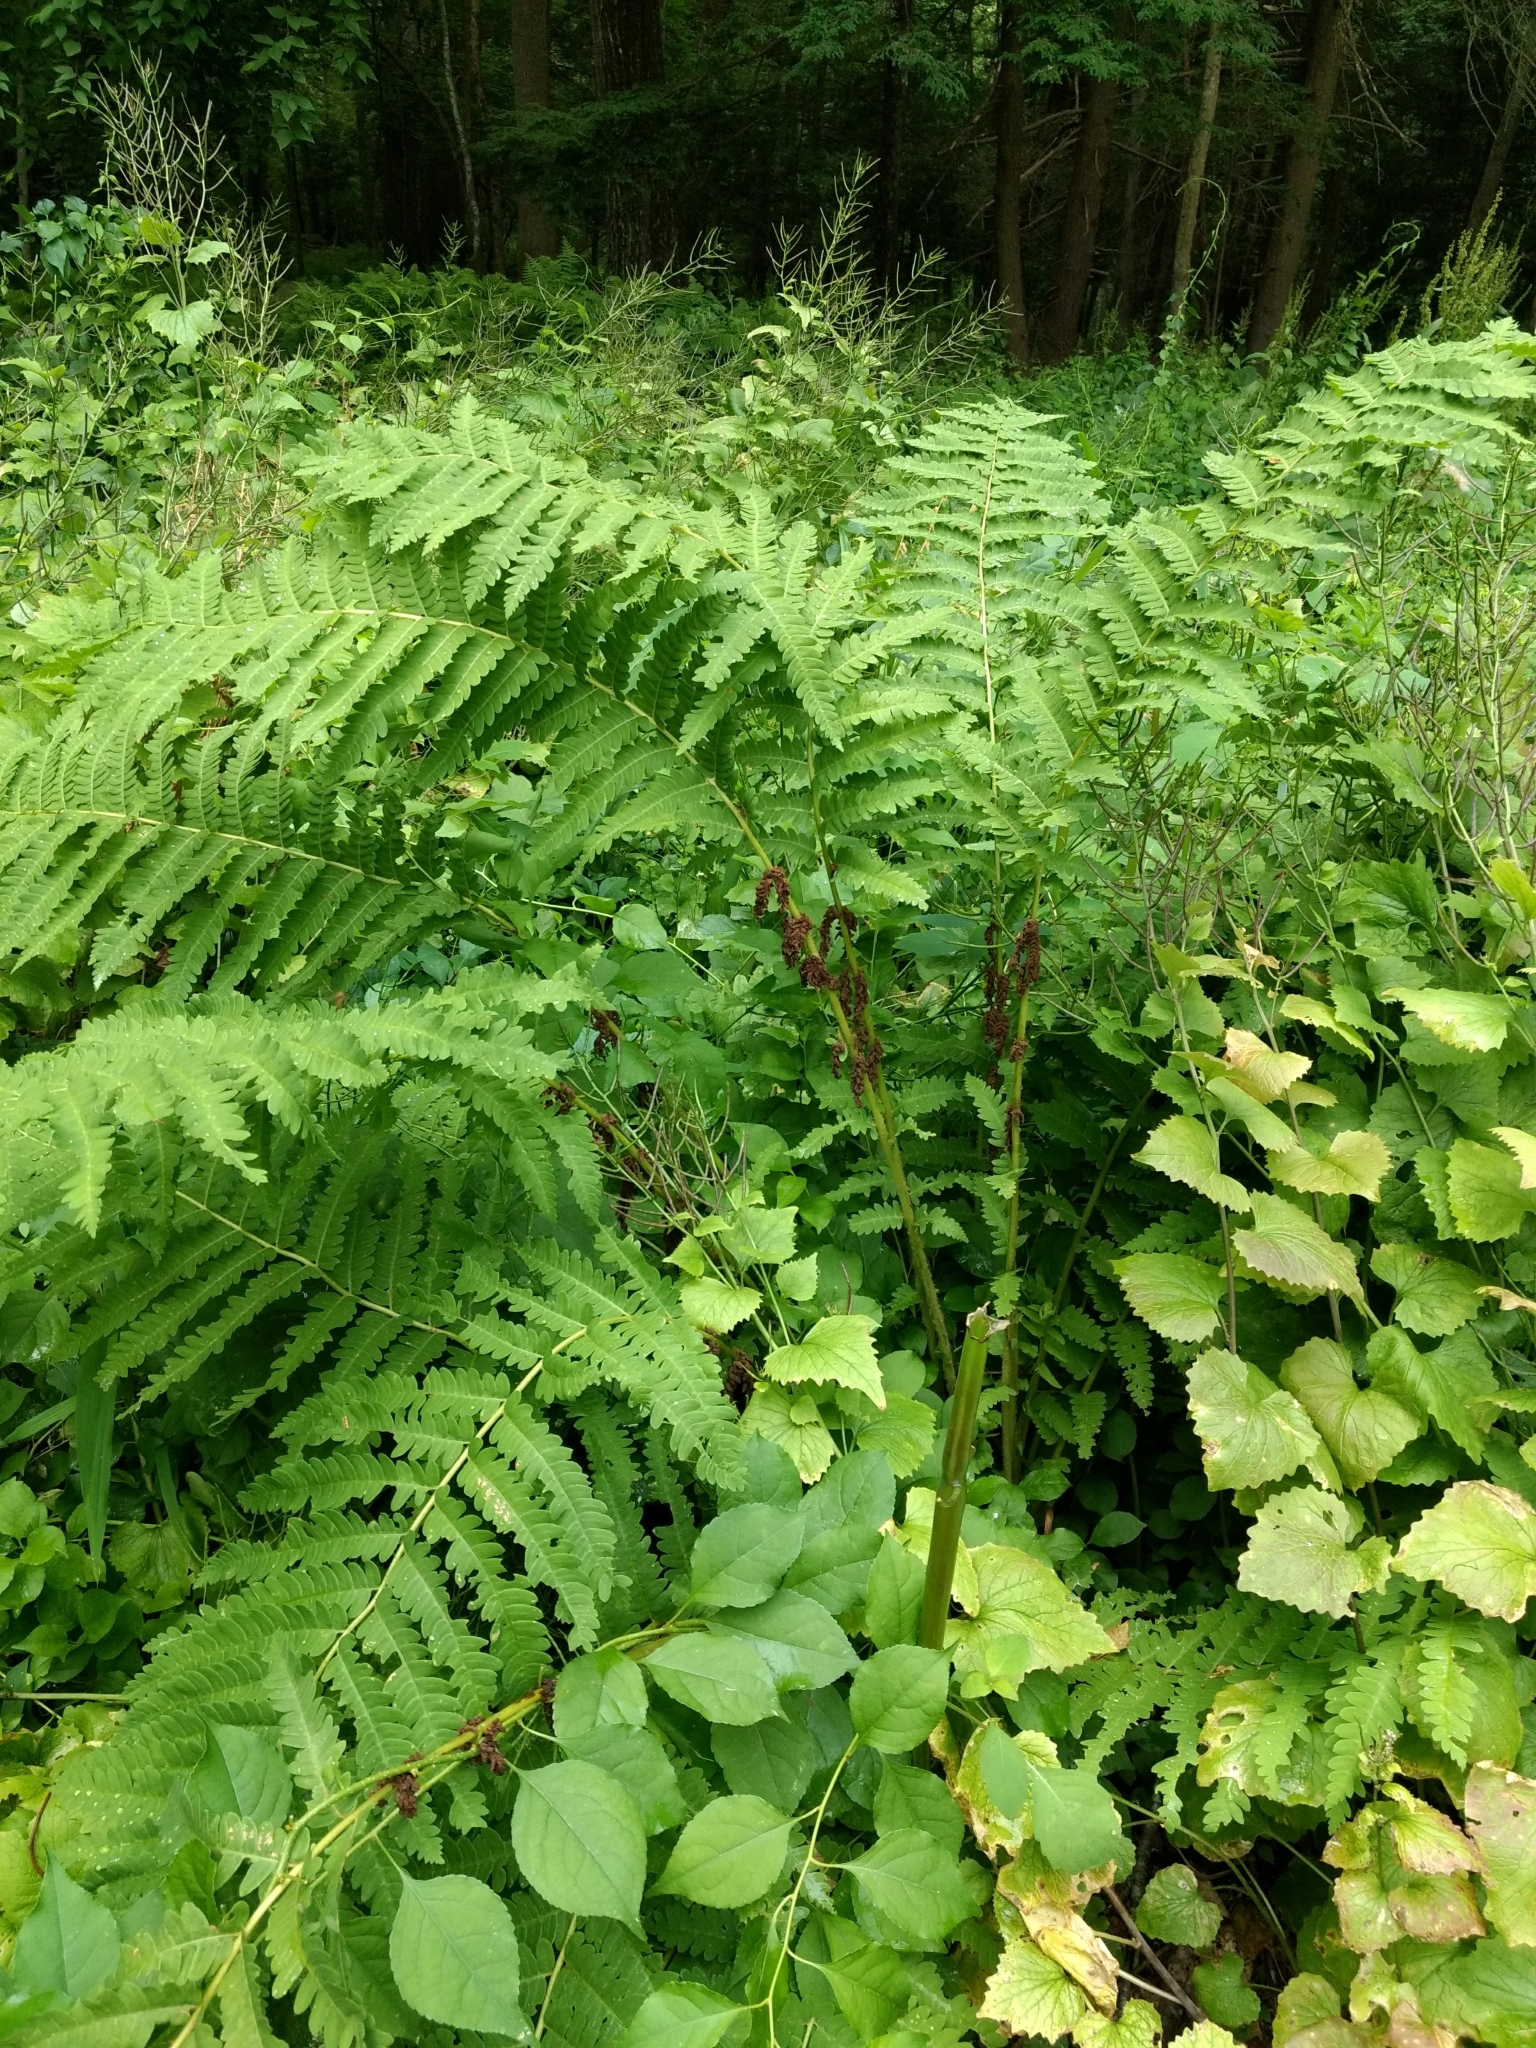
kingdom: Plantae
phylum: Tracheophyta
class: Polypodiopsida
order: Osmundales
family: Osmundaceae
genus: Claytosmunda
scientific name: Claytosmunda claytoniana
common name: Clayton's fern
